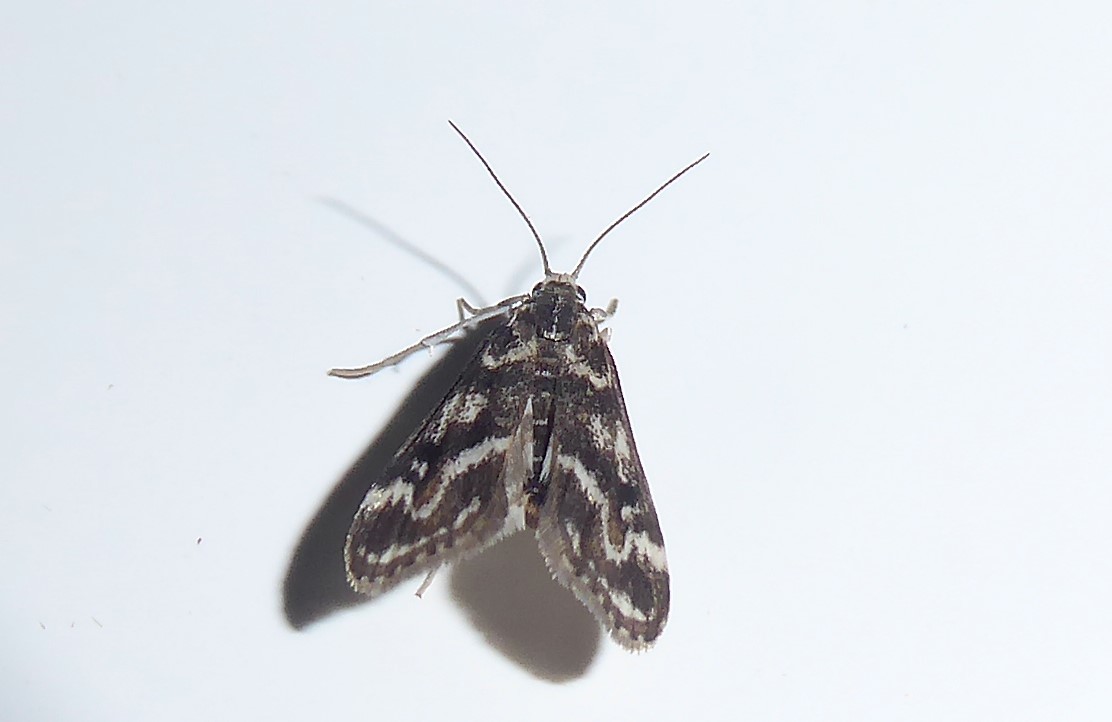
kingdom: Animalia
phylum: Arthropoda
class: Insecta
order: Lepidoptera
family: Crambidae
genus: Hygraula
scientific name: Hygraula nitens
